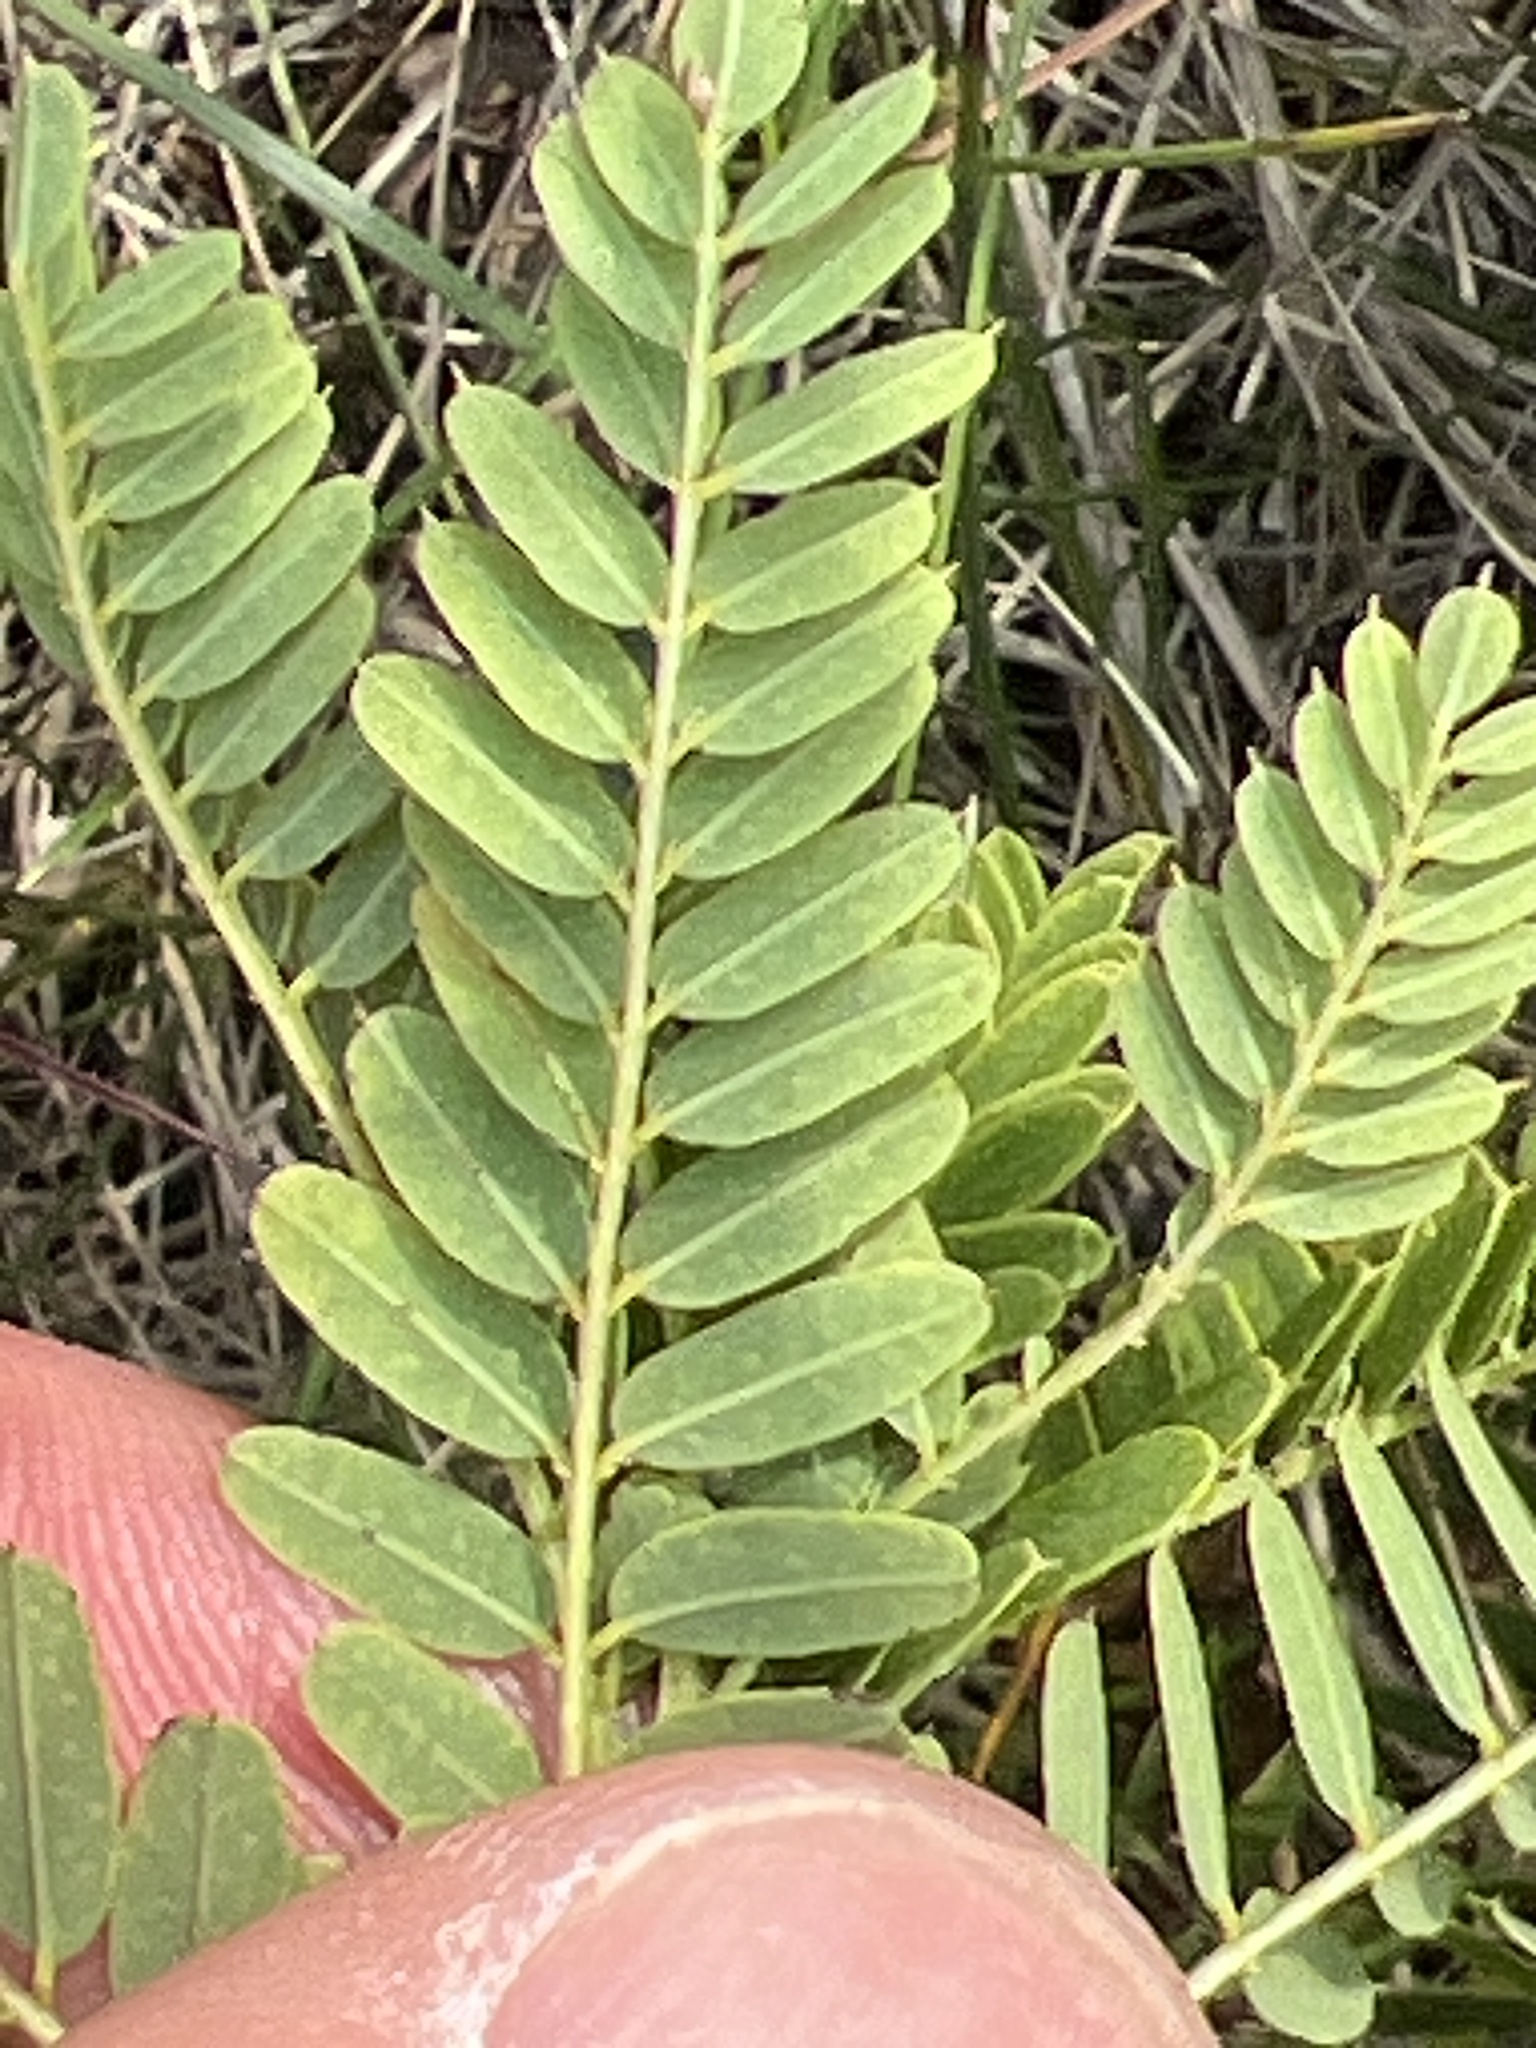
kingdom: Plantae
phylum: Tracheophyta
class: Magnoliopsida
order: Fabales
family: Fabaceae
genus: Amorpha
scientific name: Amorpha nana
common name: Fragrant false indigo
